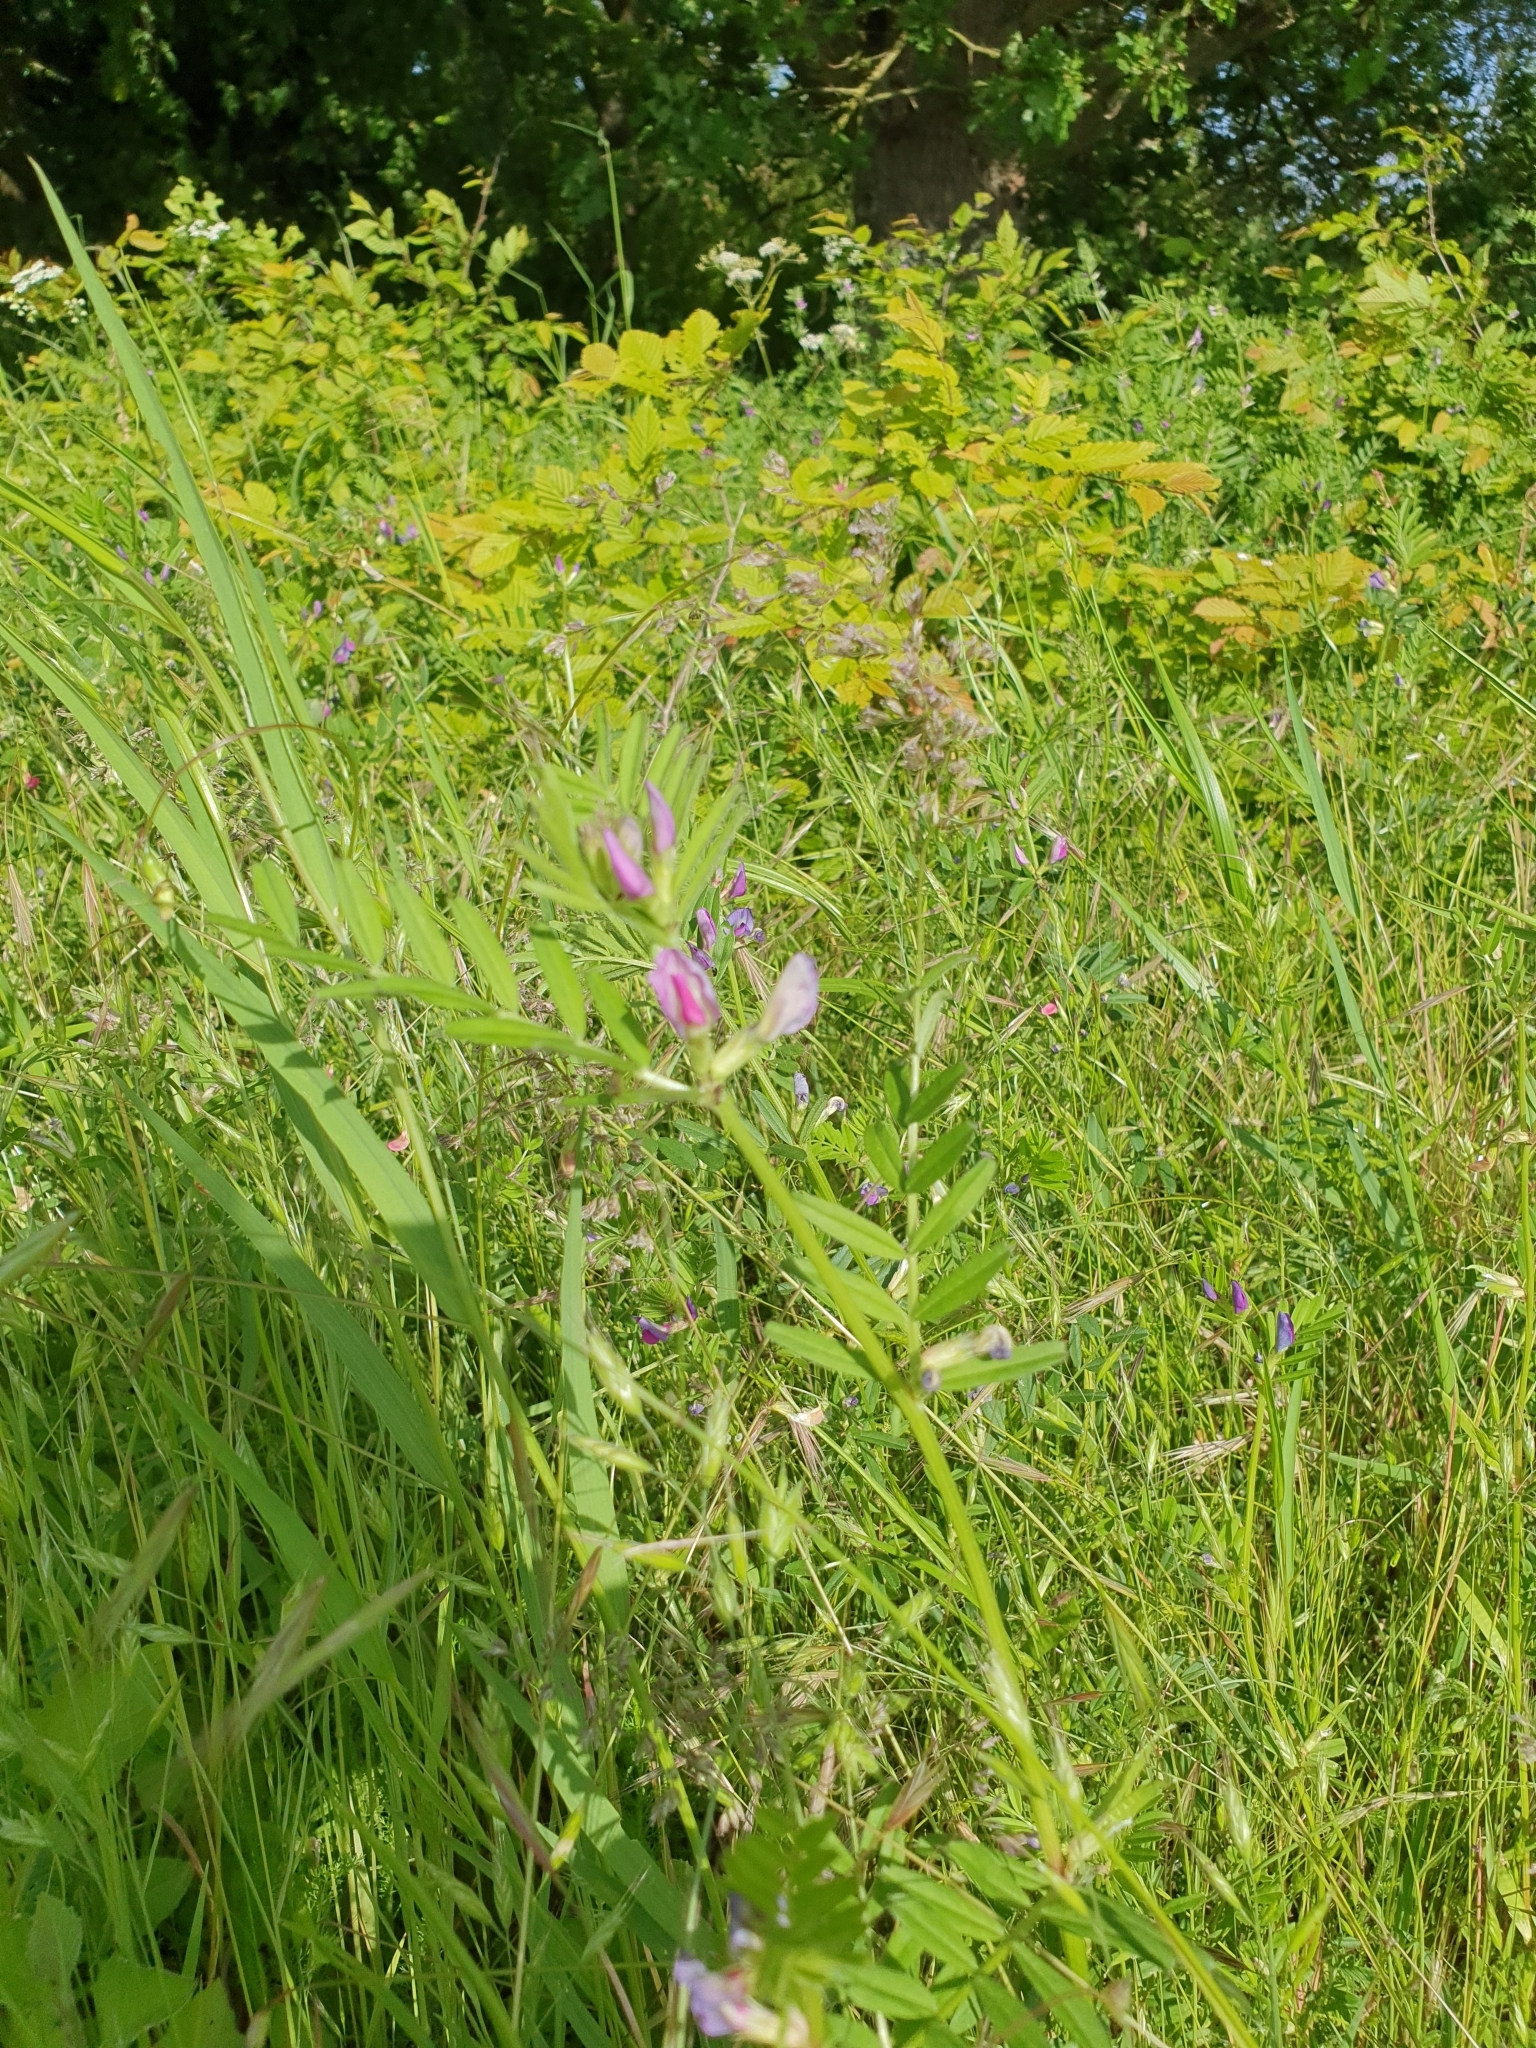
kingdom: Plantae
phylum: Tracheophyta
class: Magnoliopsida
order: Fabales
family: Fabaceae
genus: Vicia
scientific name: Vicia sativa
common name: Garden vetch
